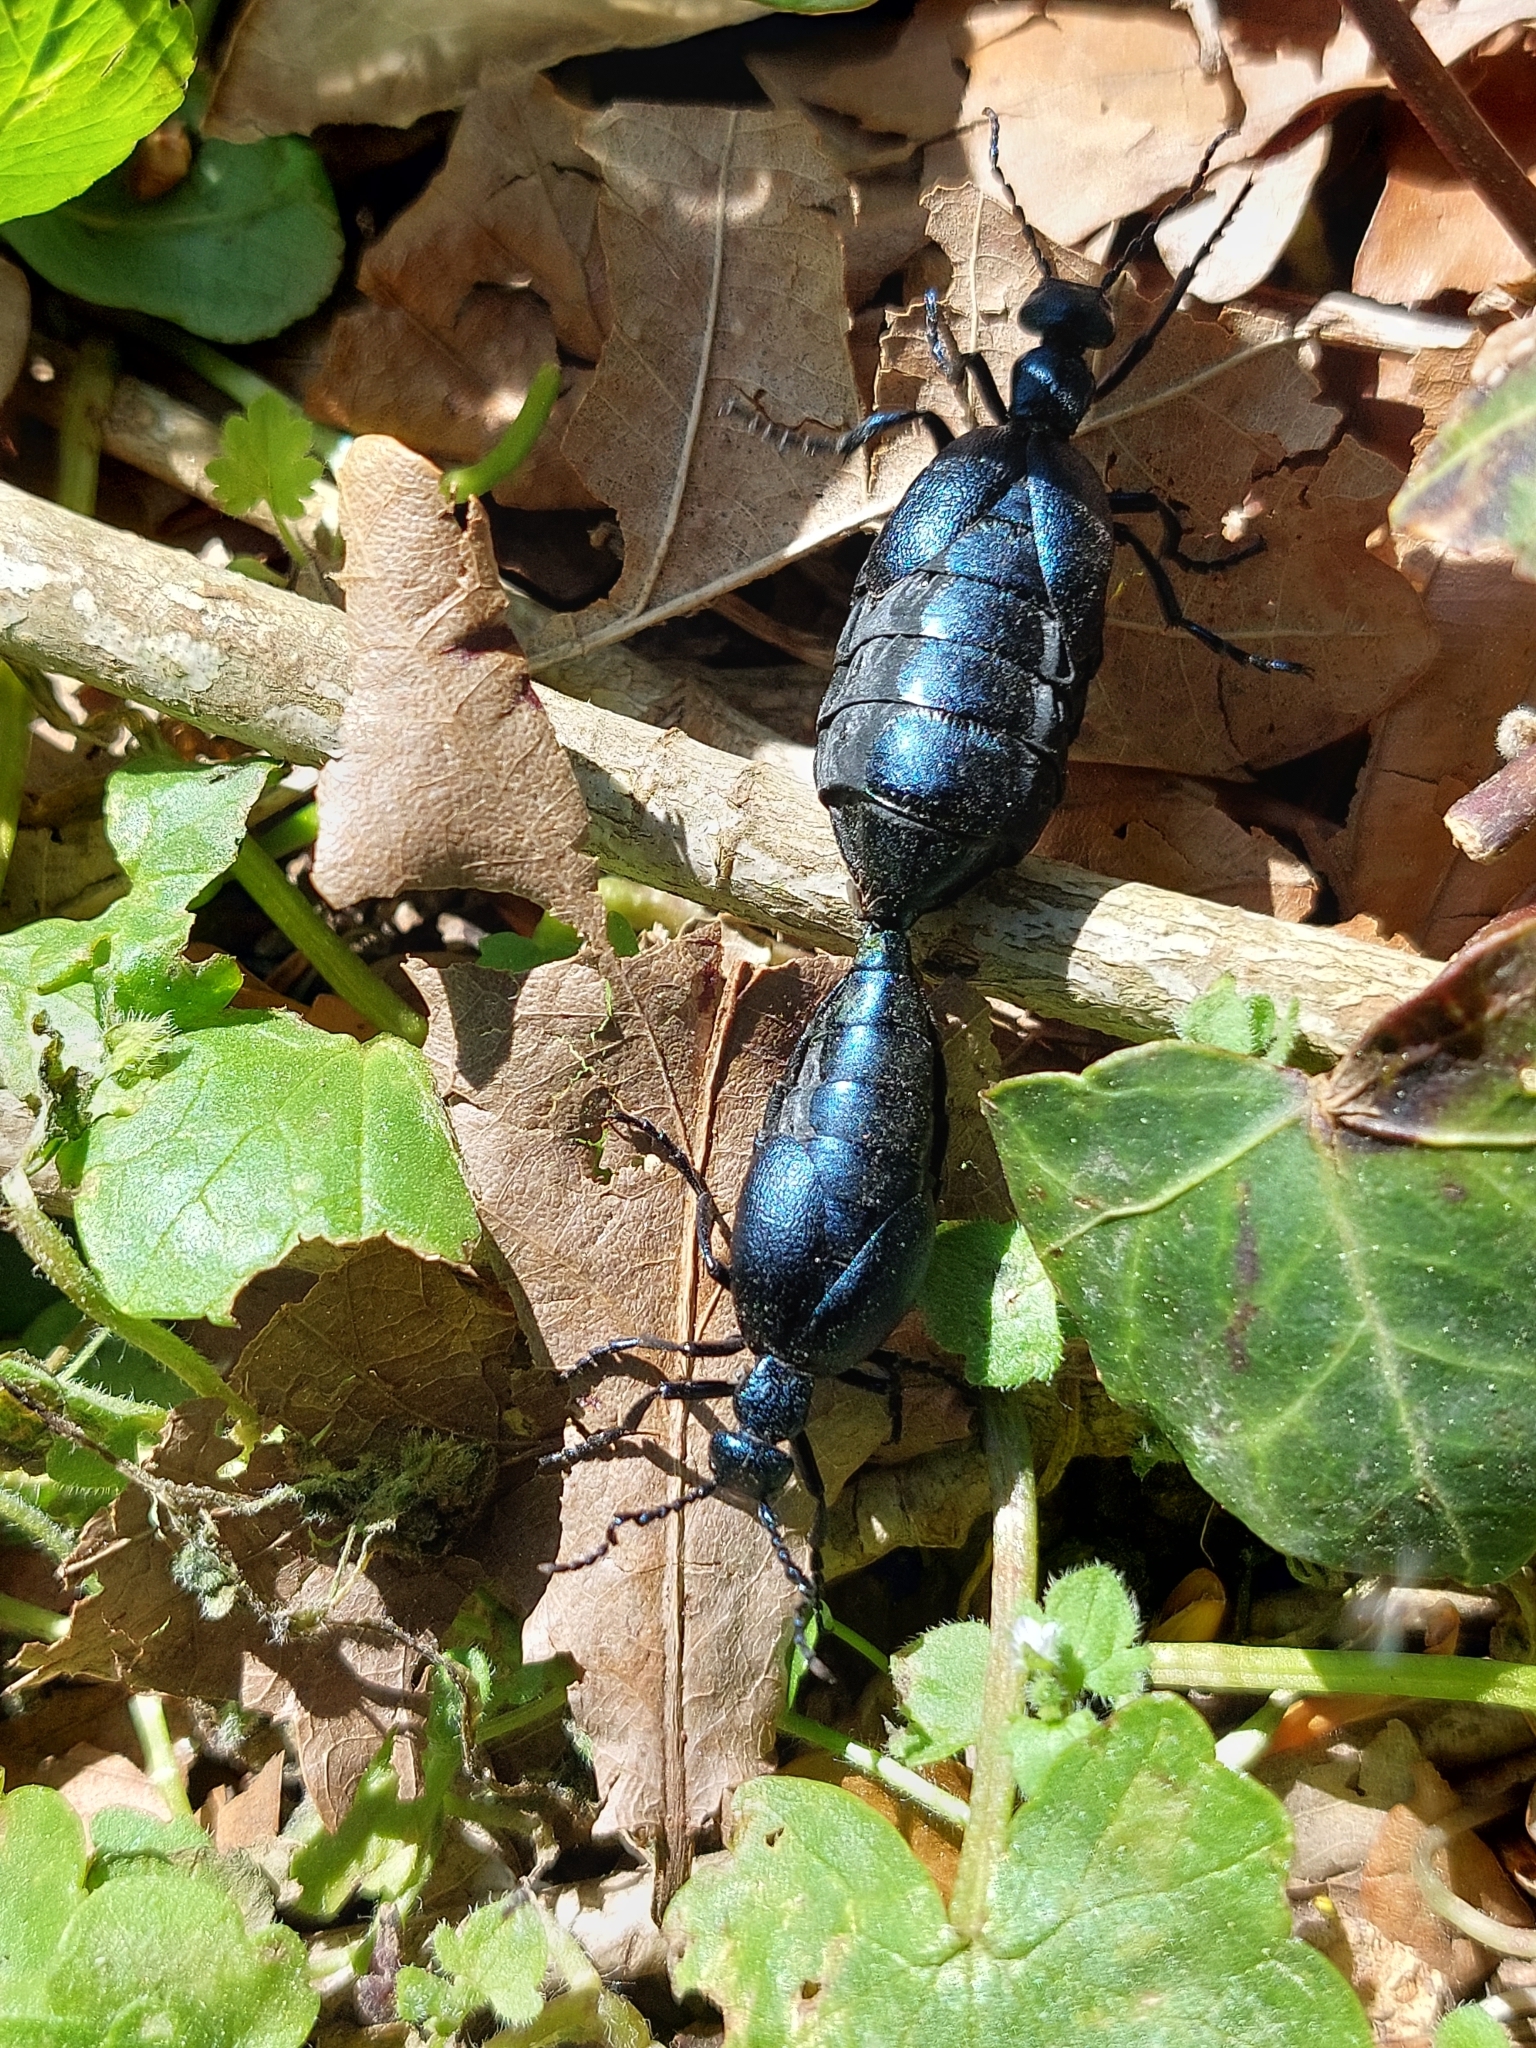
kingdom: Animalia
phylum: Arthropoda
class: Insecta
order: Coleoptera
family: Meloidae
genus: Meloe
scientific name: Meloe violaceus
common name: Violet oil-beetle
